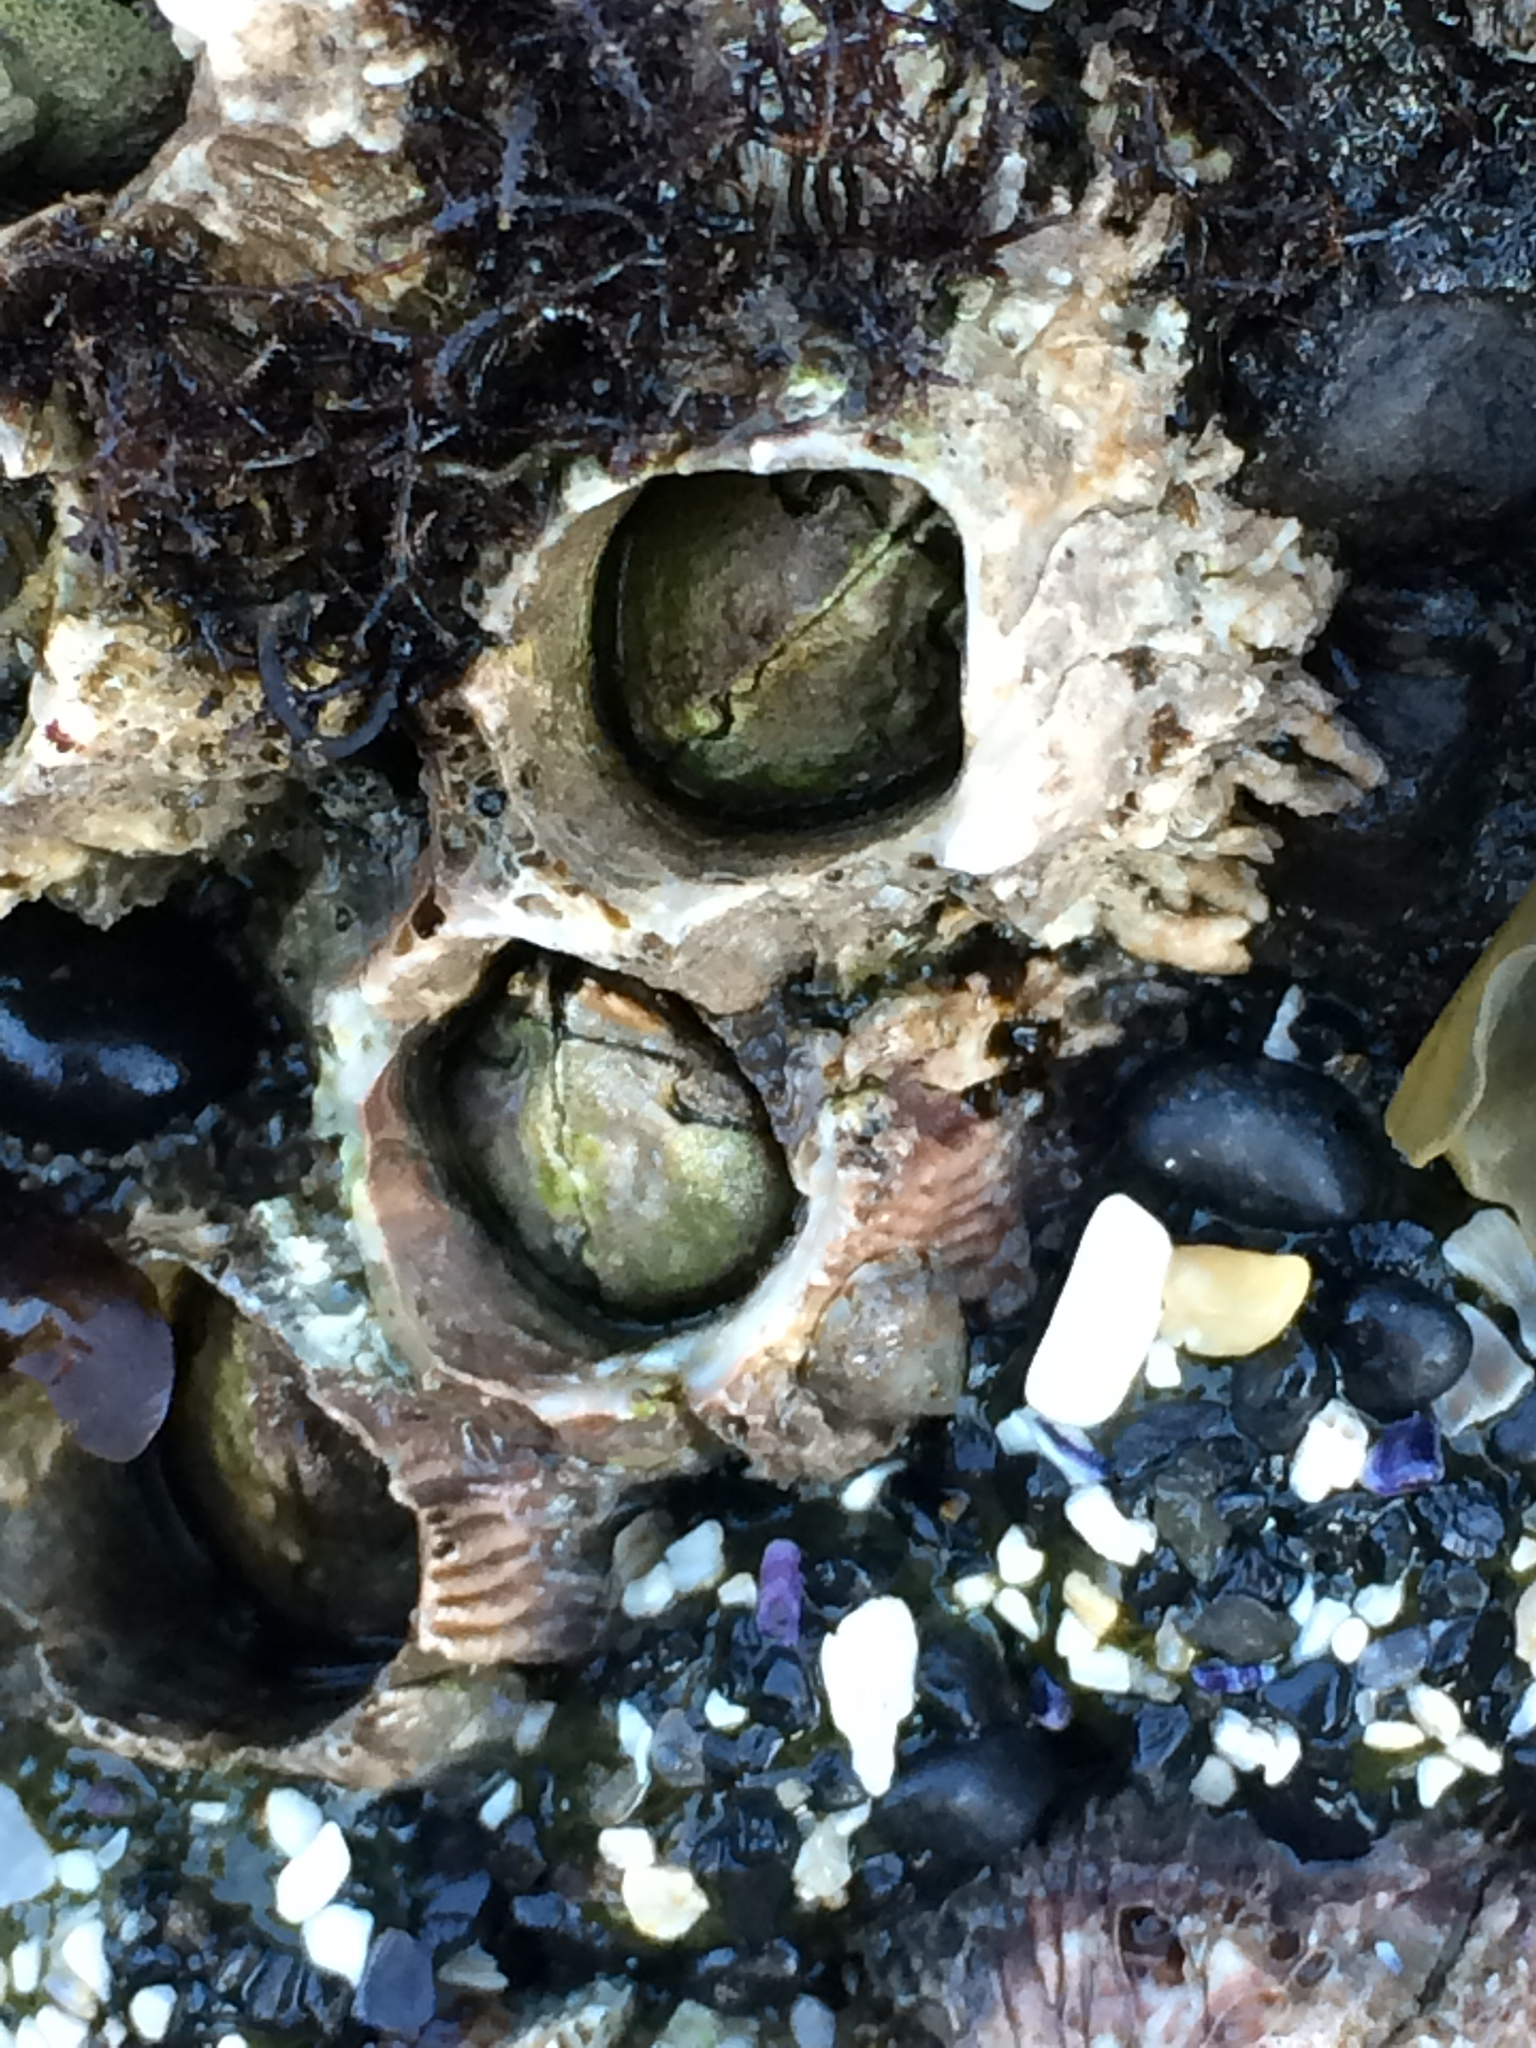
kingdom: Animalia
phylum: Arthropoda
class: Maxillopoda
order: Sessilia
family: Archaeobalanidae
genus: Semibalanus
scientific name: Semibalanus cariosus
